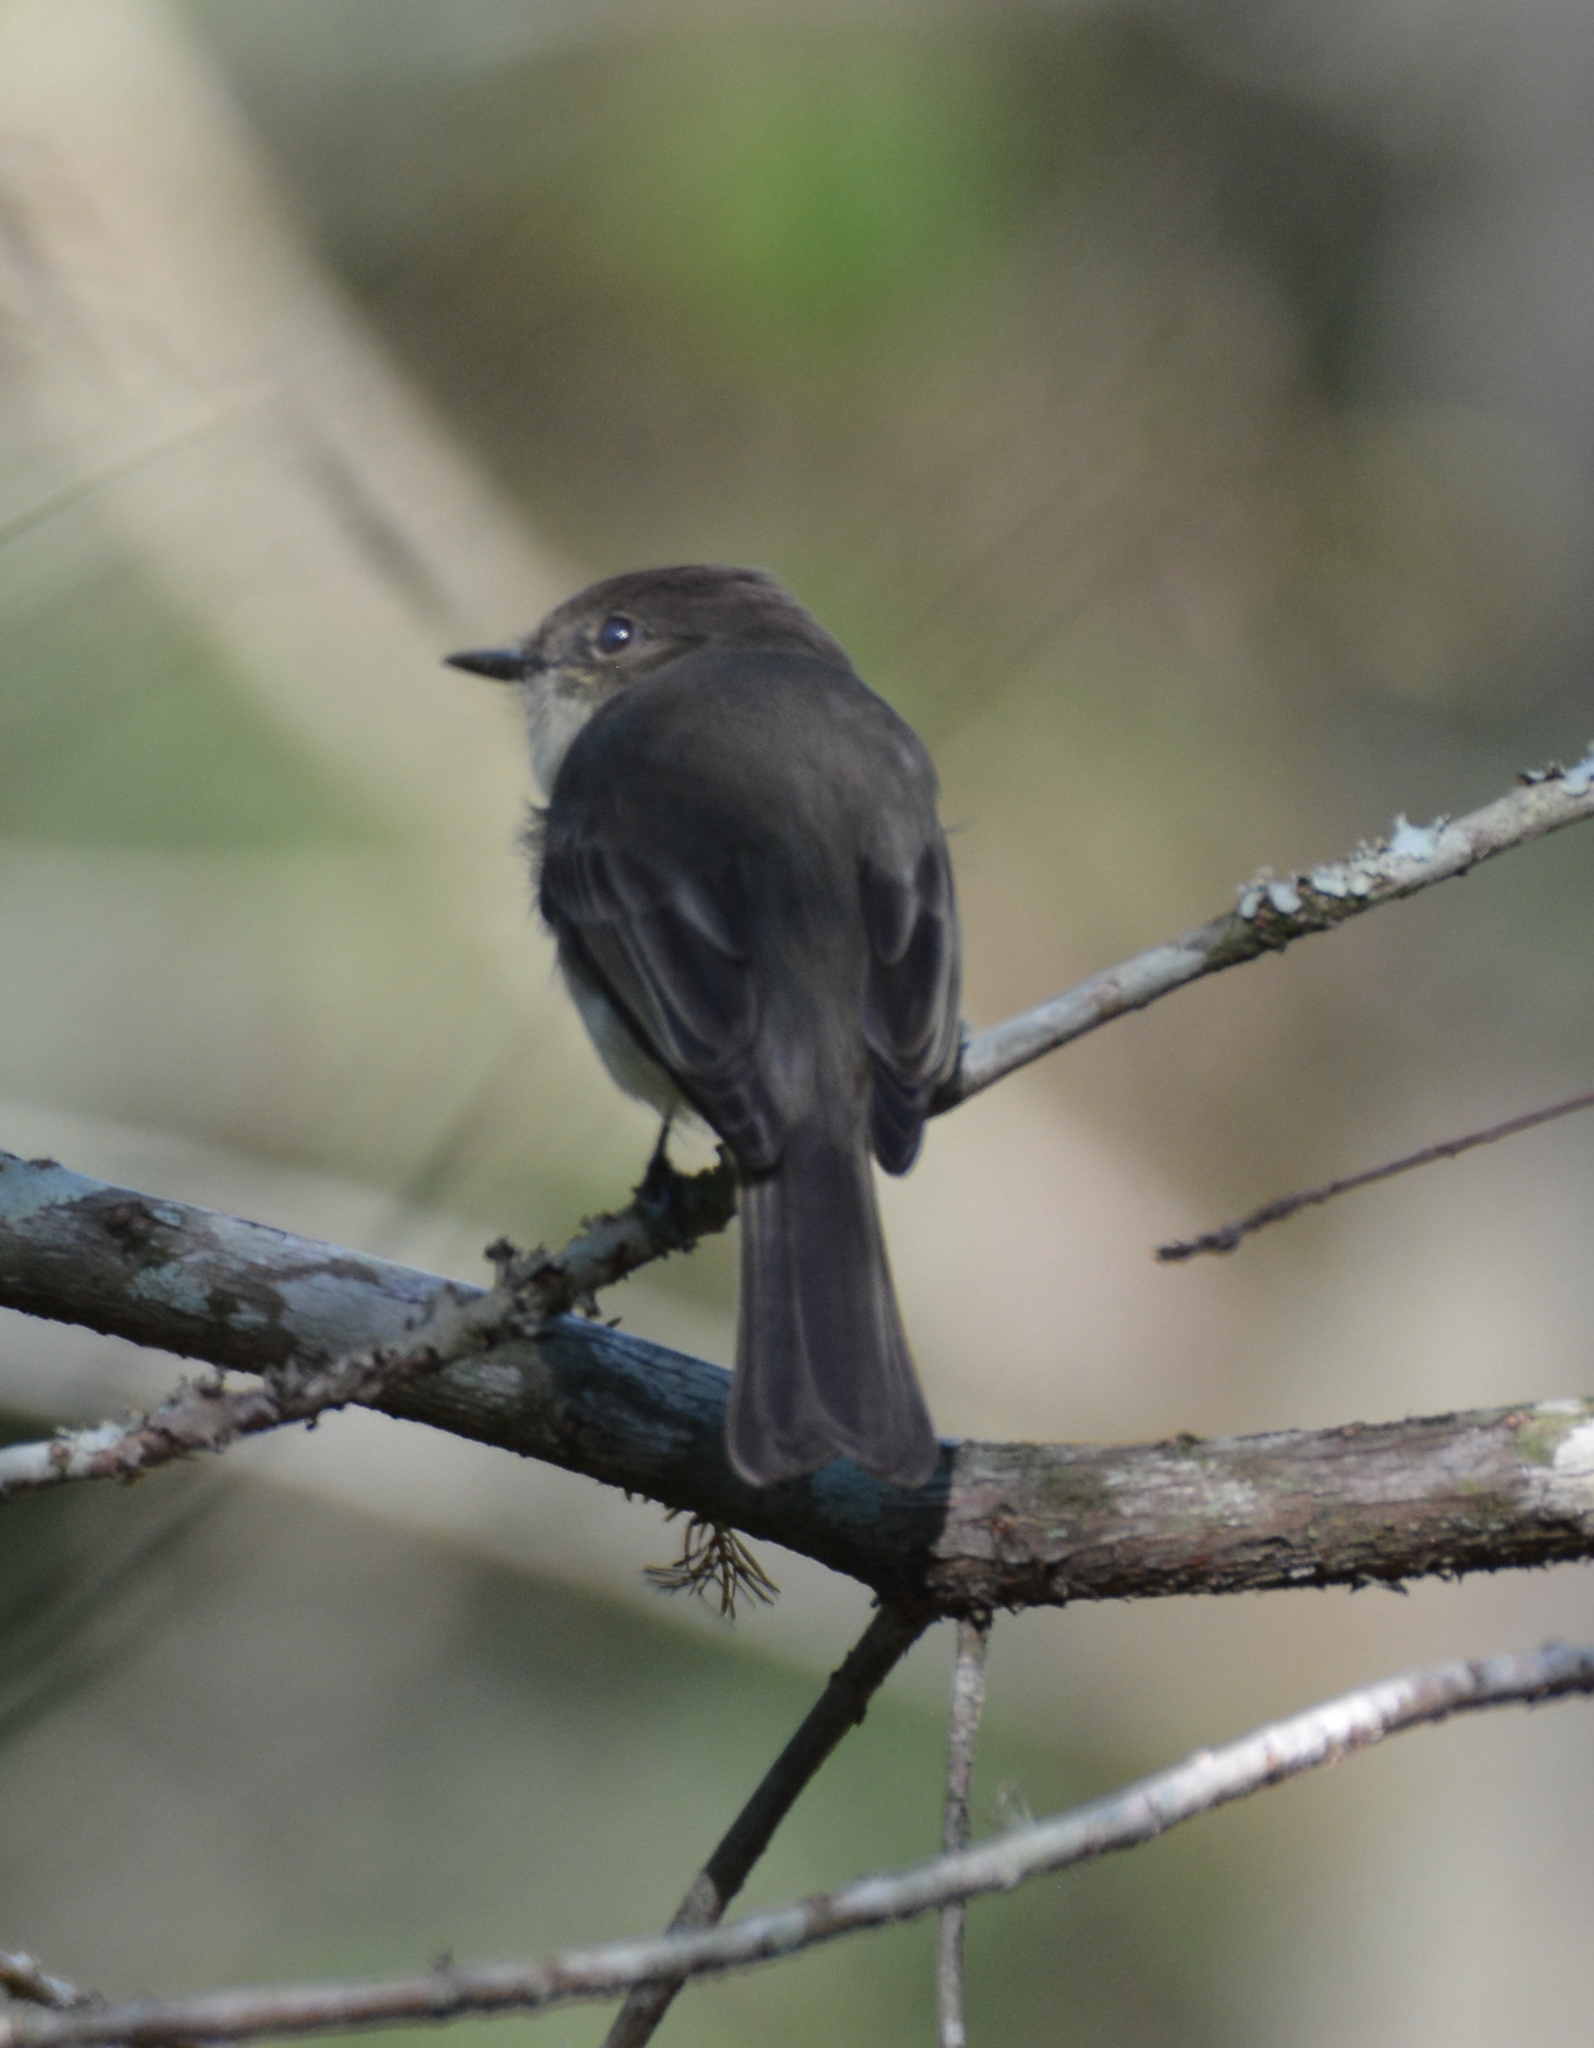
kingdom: Animalia
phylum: Chordata
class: Aves
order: Passeriformes
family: Tyrannidae
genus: Sayornis
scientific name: Sayornis phoebe
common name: Eastern phoebe
